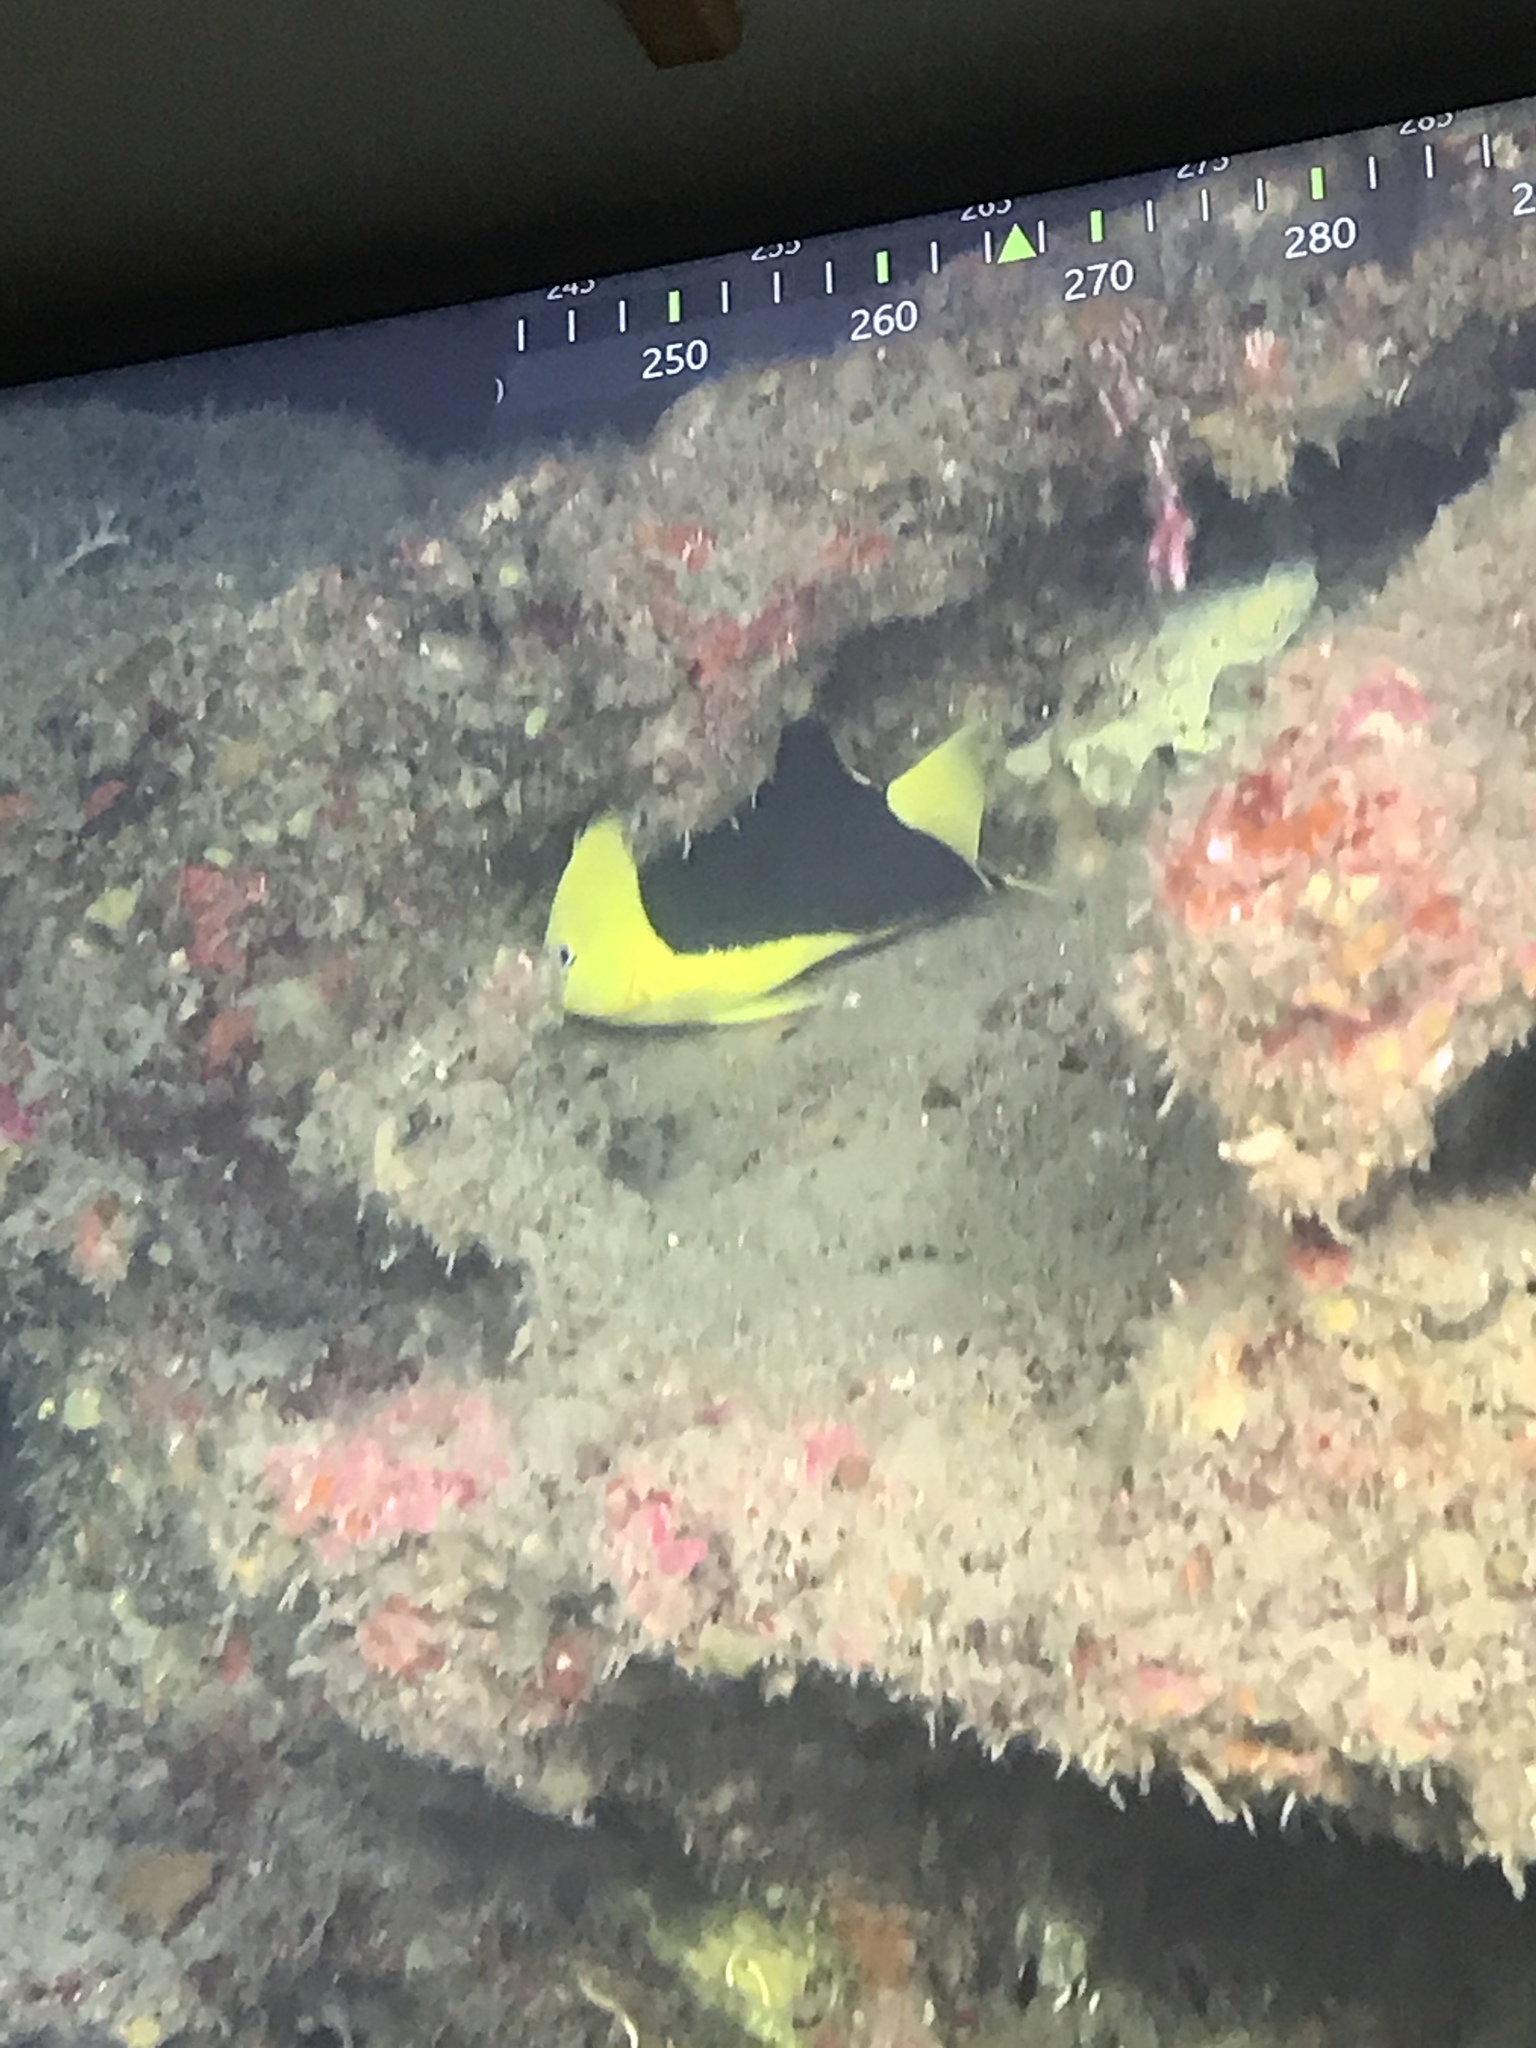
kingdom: Animalia
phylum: Chordata
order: Perciformes
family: Pomacanthidae
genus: Holacanthus
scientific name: Holacanthus tricolor
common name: Rock beauty
